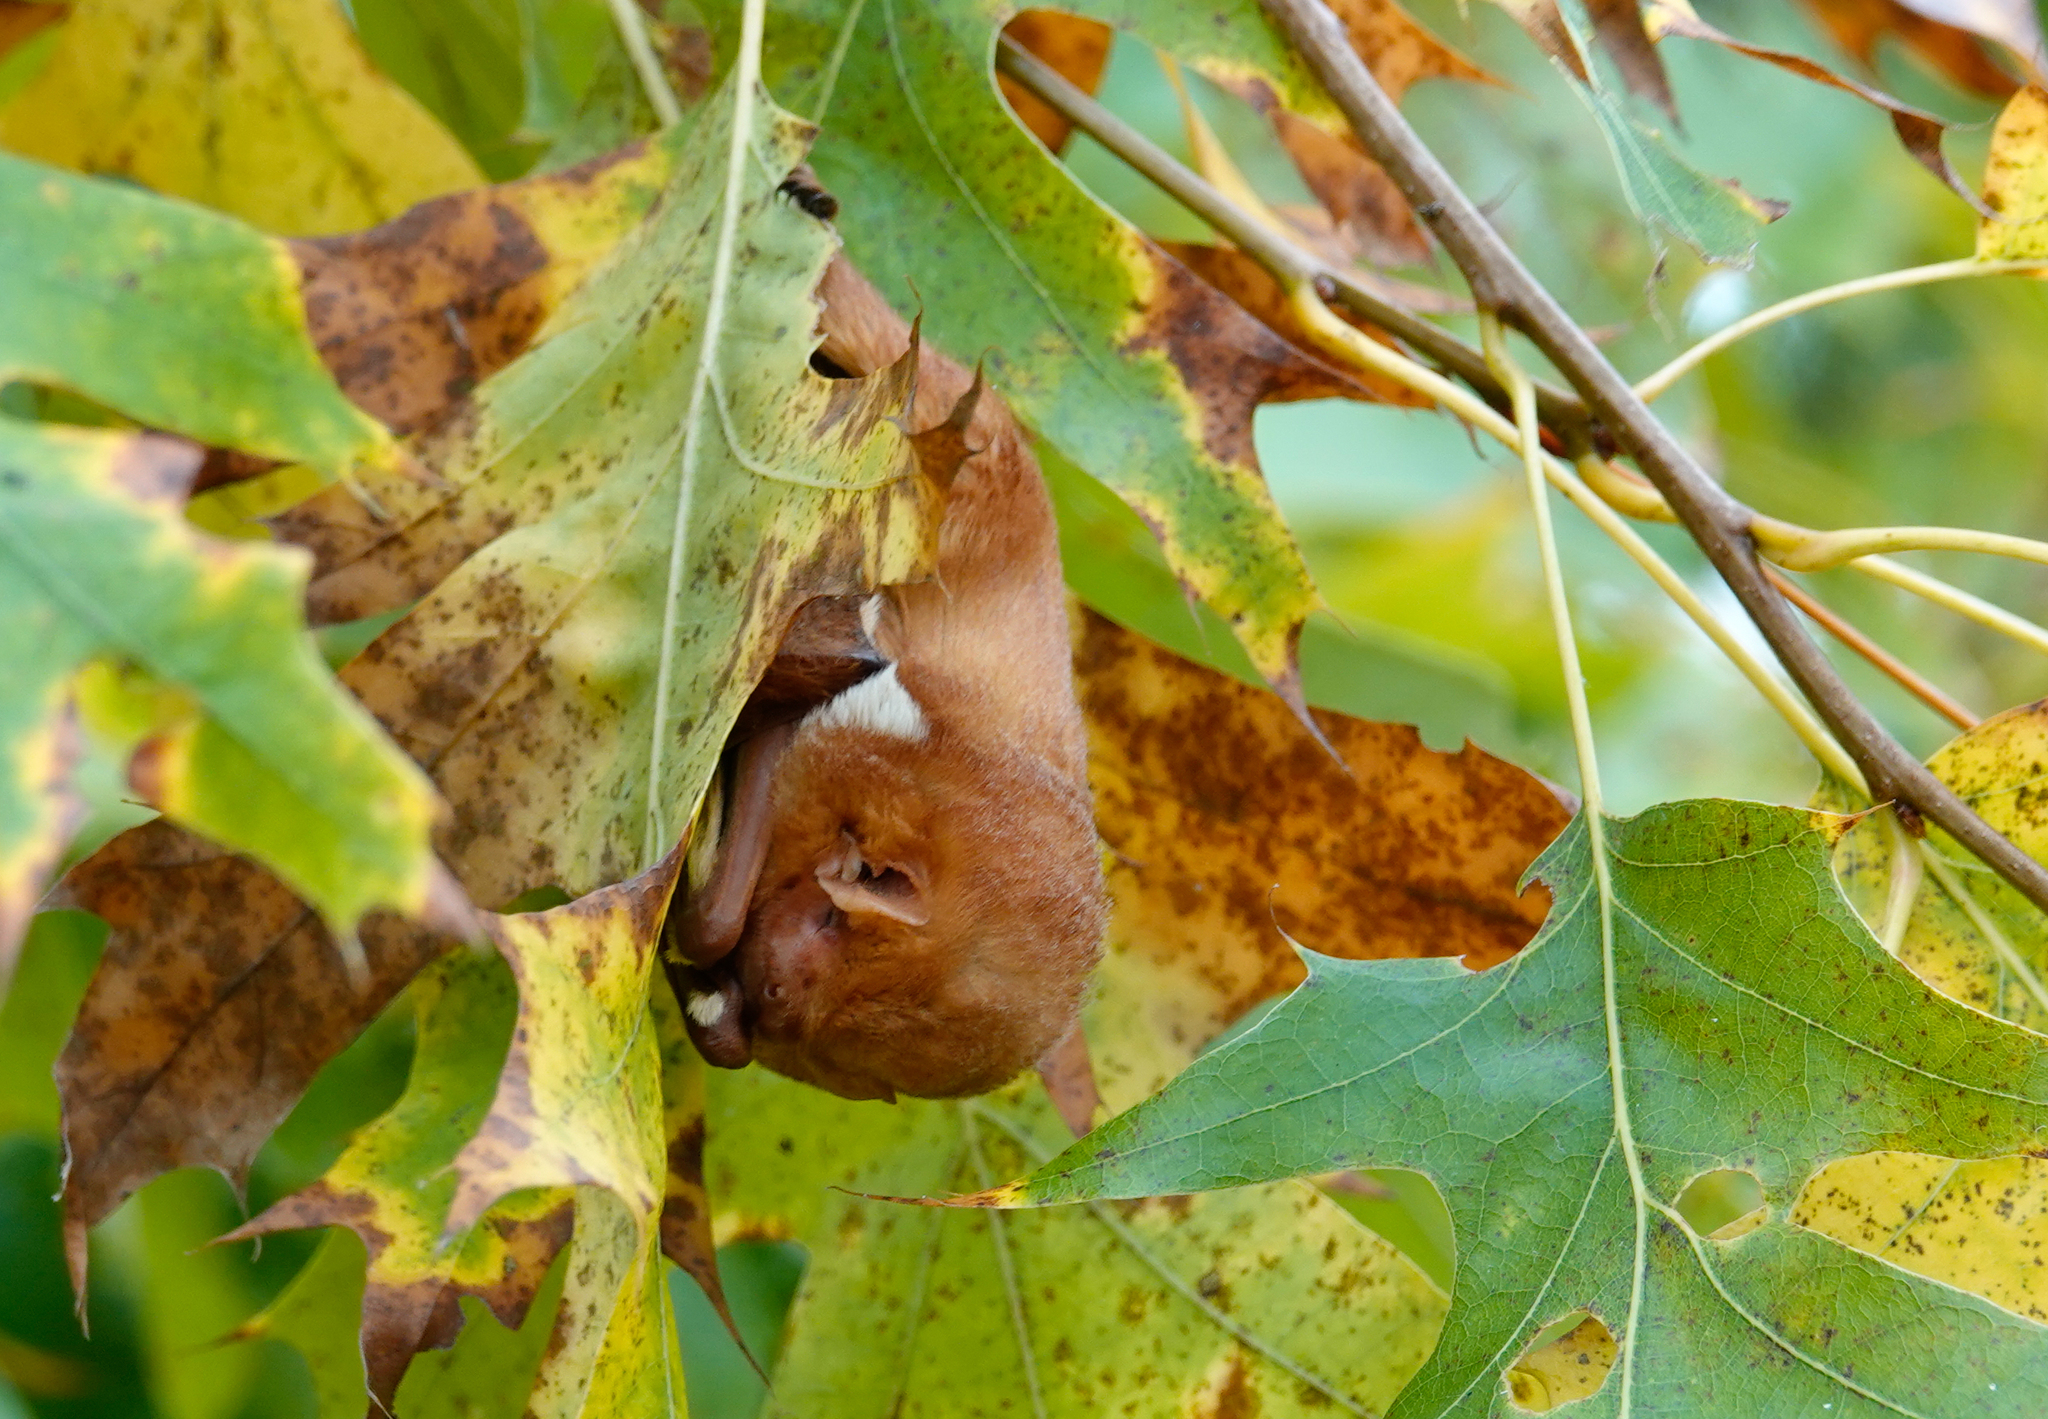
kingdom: Animalia
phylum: Chordata
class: Mammalia
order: Chiroptera
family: Vespertilionidae
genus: Lasiurus
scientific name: Lasiurus borealis
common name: Eastern red bat
